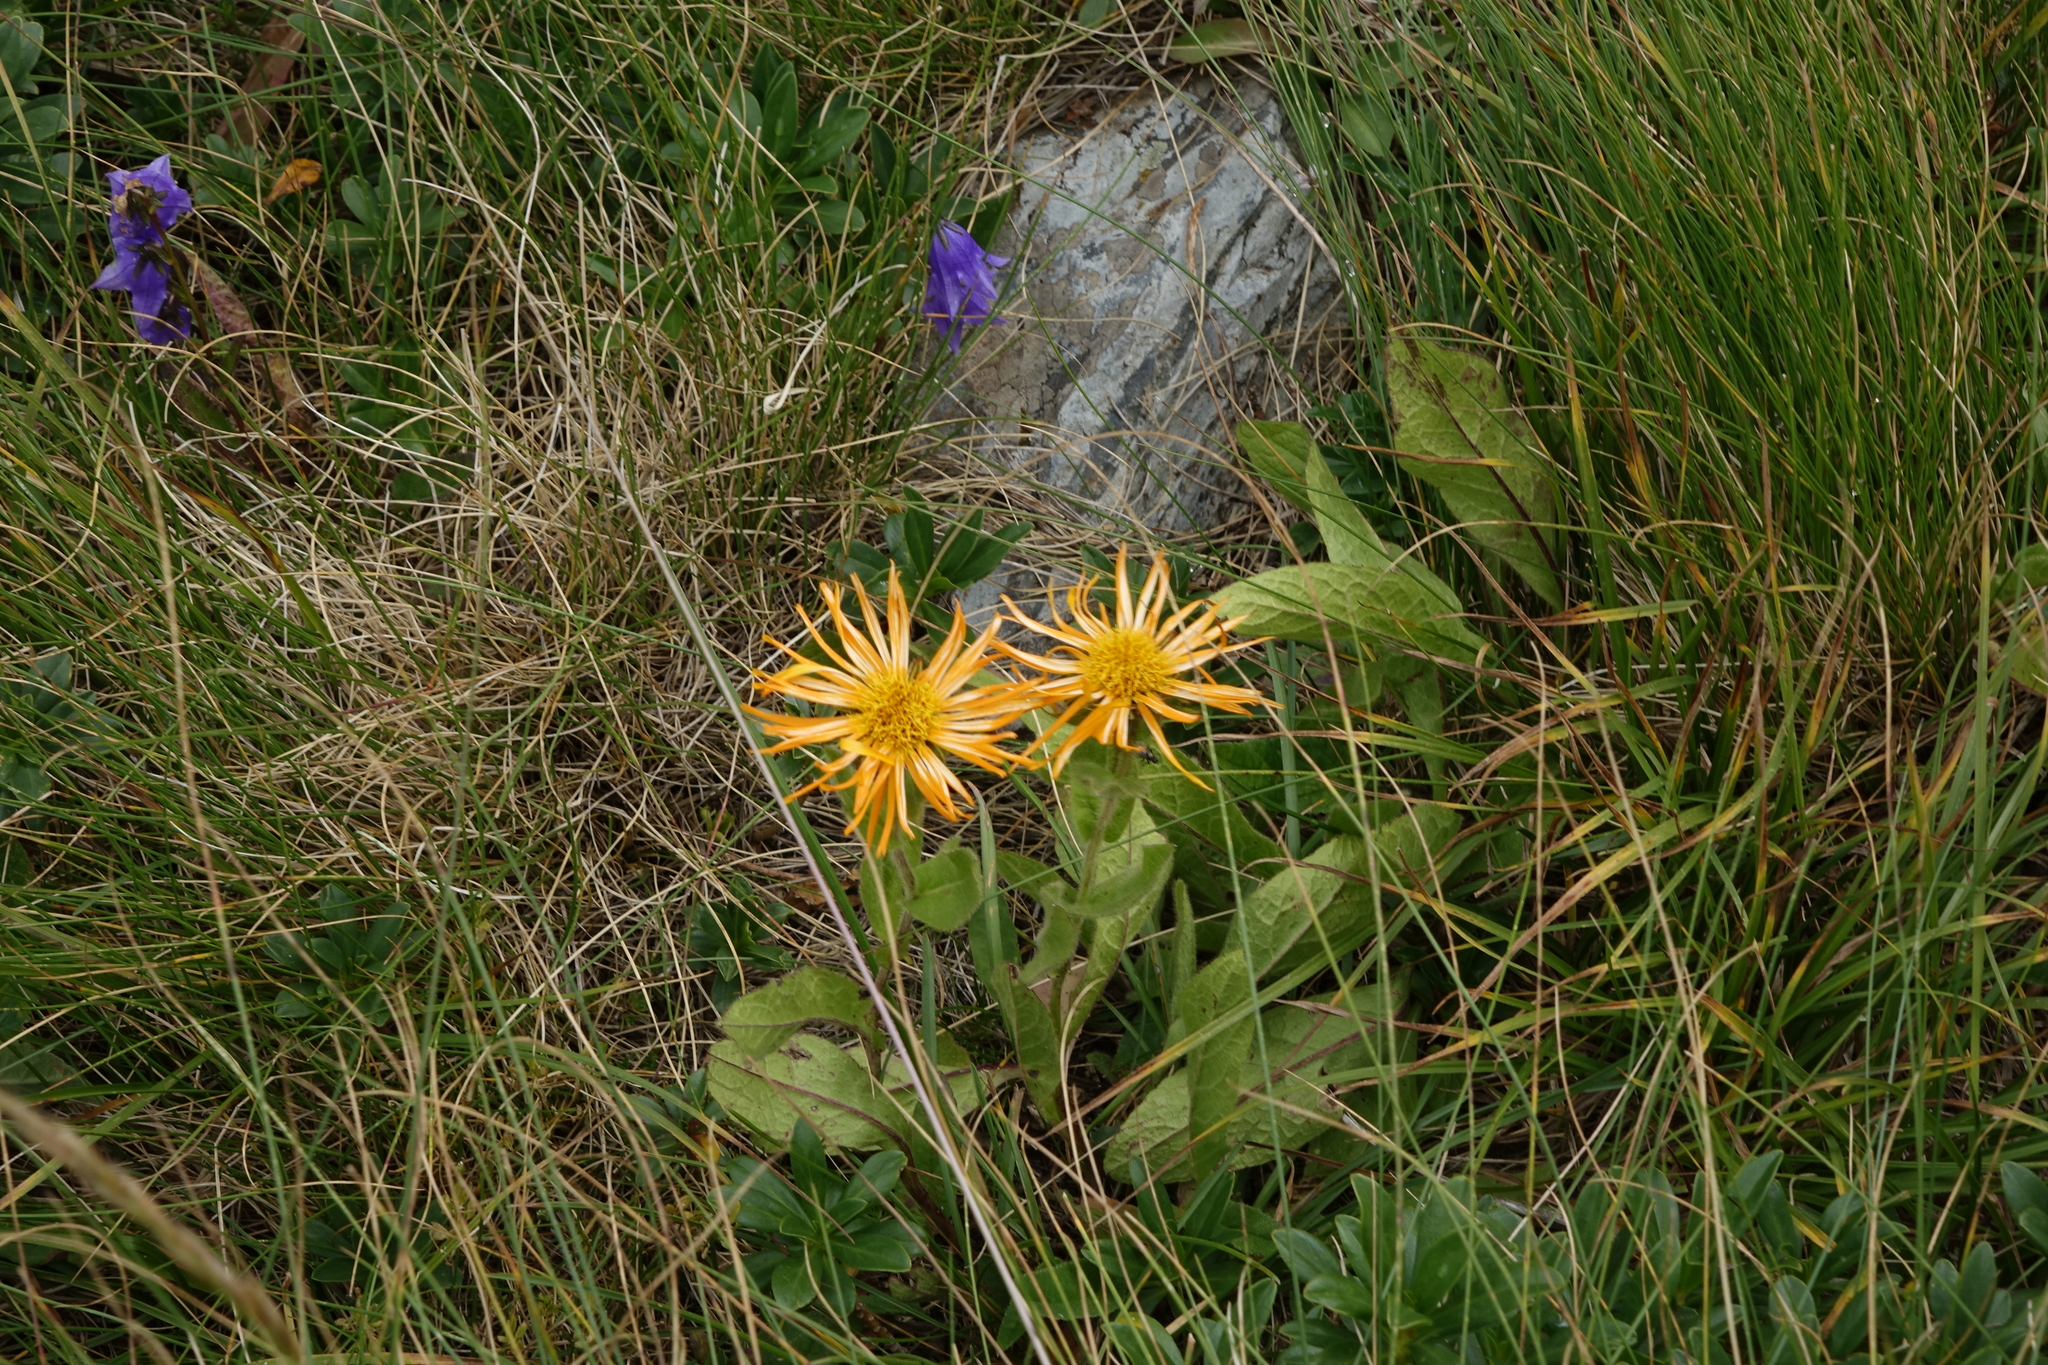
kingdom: Plantae
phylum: Tracheophyta
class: Magnoliopsida
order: Asterales
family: Asteraceae
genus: Pentanema
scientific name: Pentanema orientale
